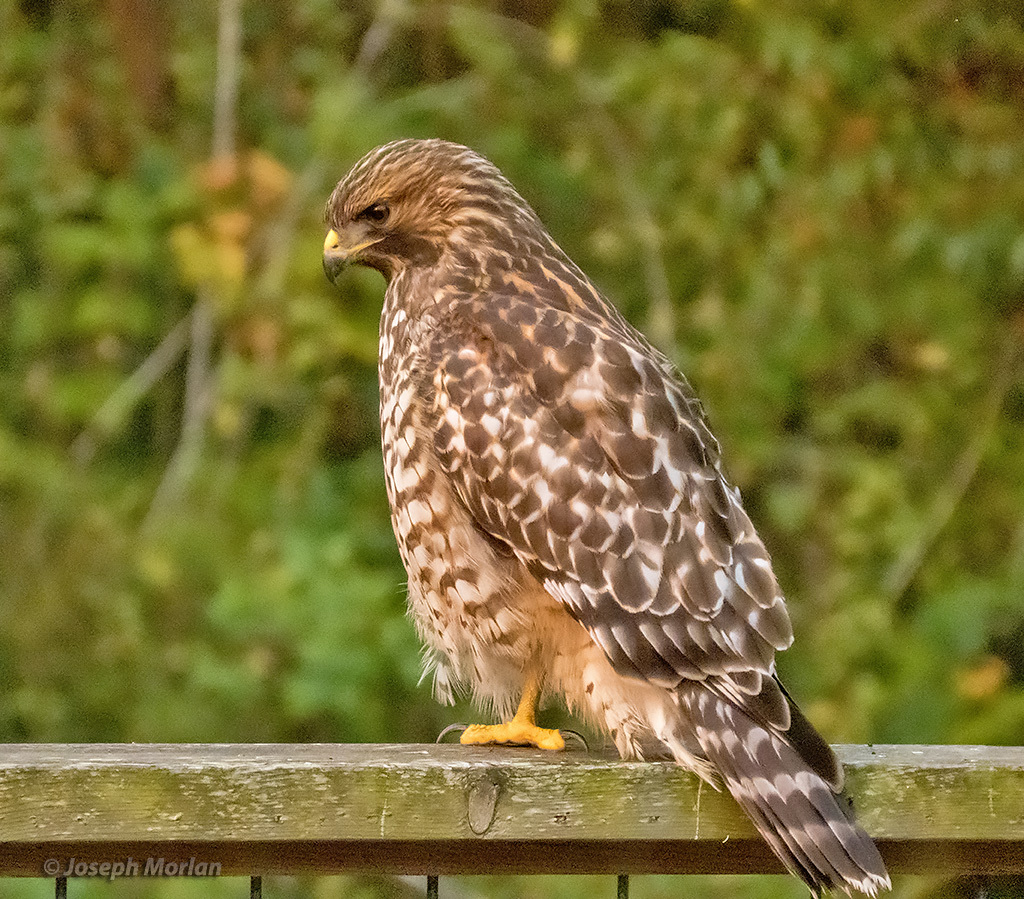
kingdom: Animalia
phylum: Chordata
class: Aves
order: Accipitriformes
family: Accipitridae
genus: Buteo
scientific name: Buteo lineatus
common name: Red-shouldered hawk
